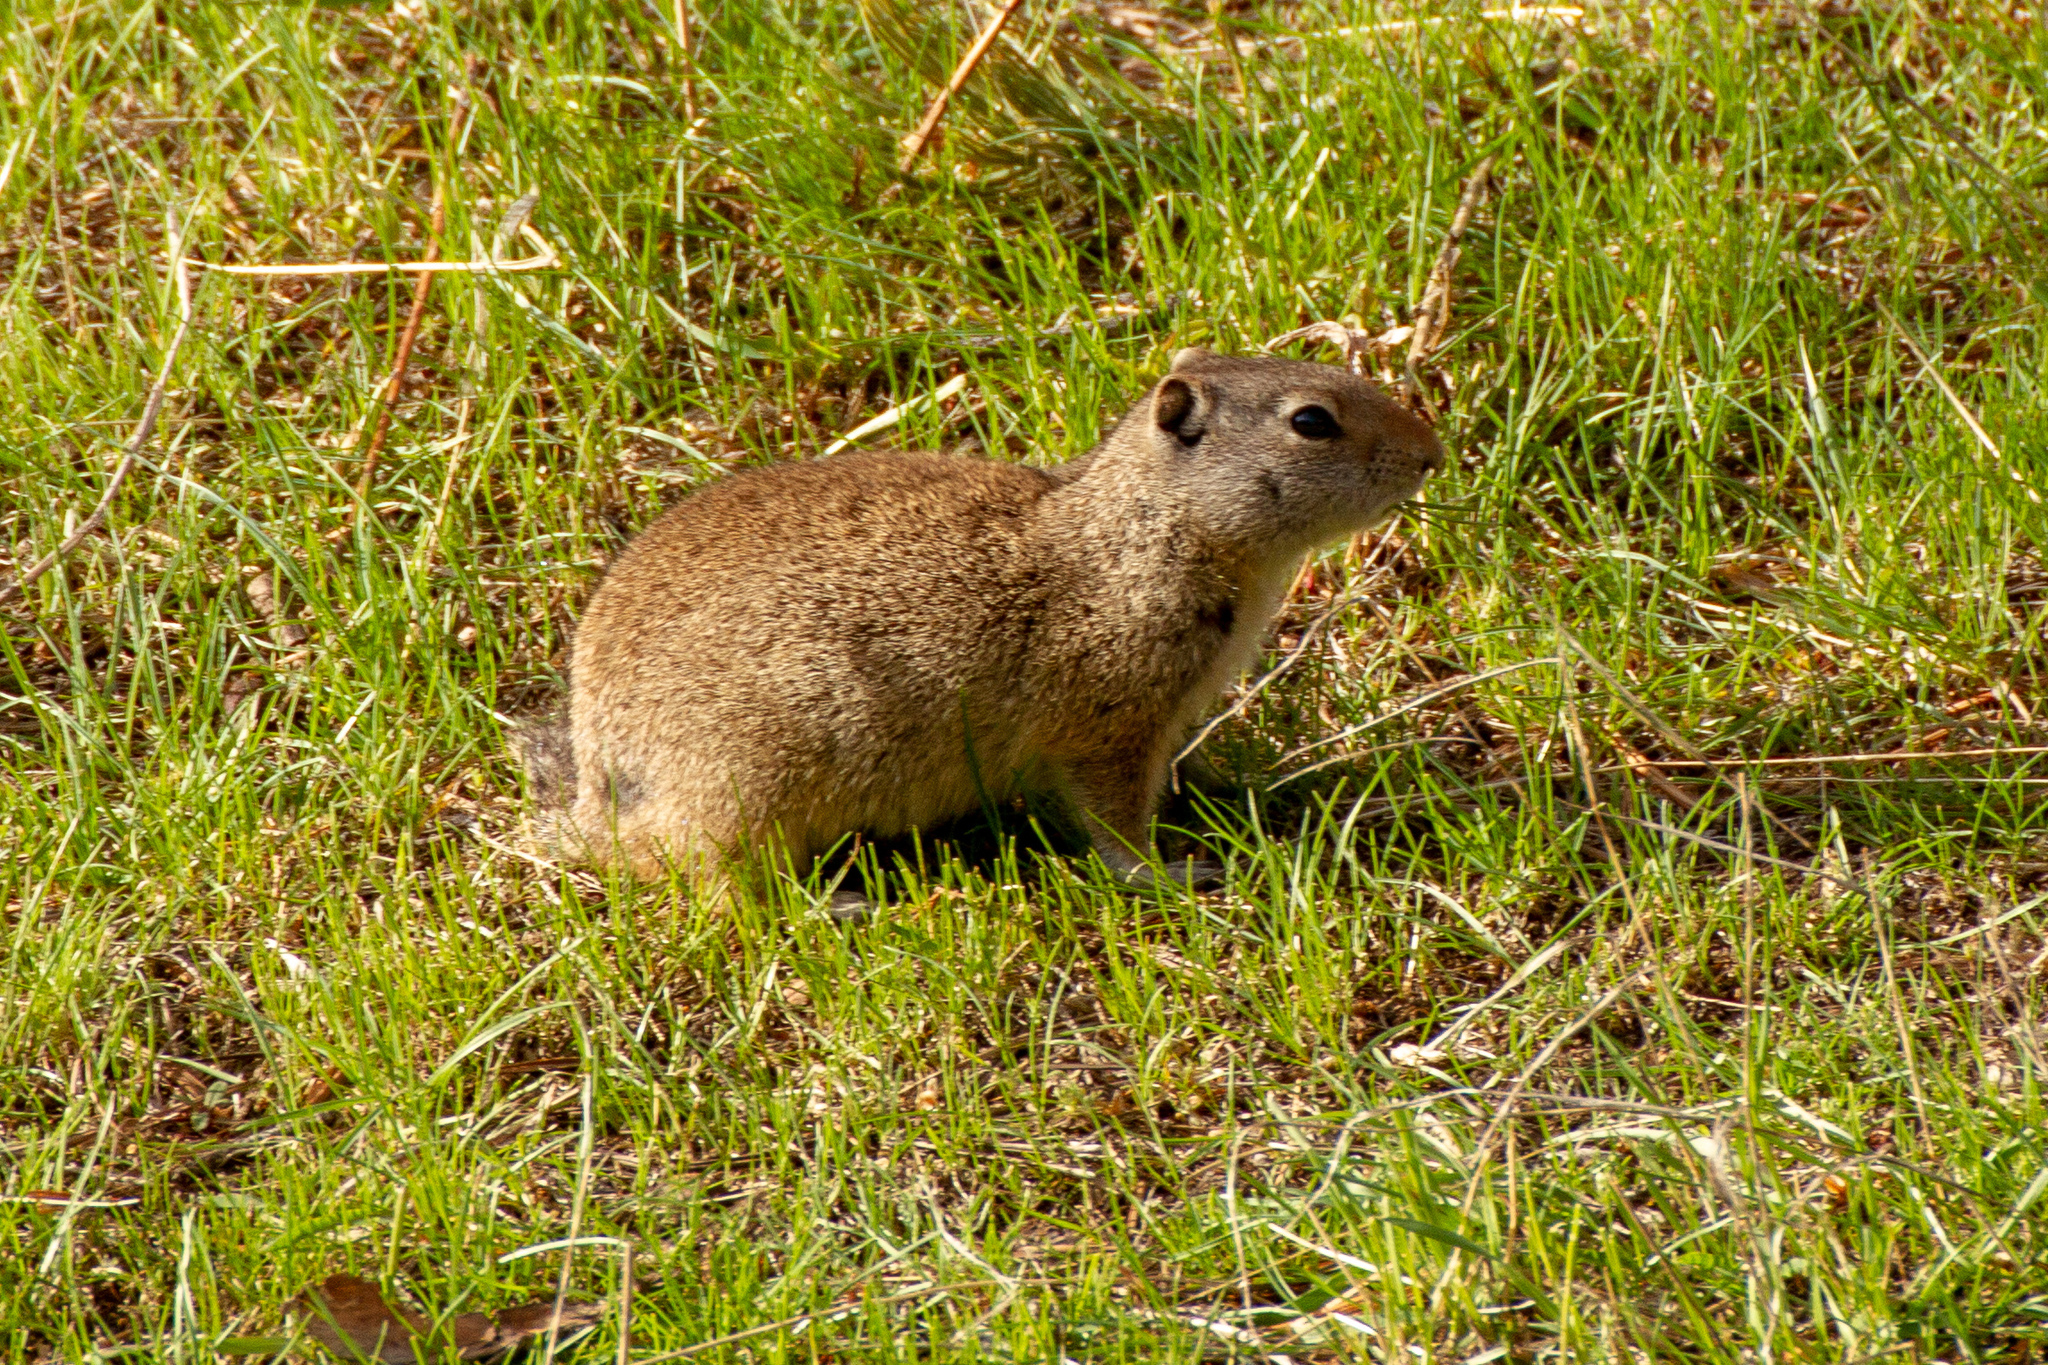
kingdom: Animalia
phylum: Chordata
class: Mammalia
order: Rodentia
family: Sciuridae
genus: Urocitellus
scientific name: Urocitellus armatus
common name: Uinta ground squirrel
